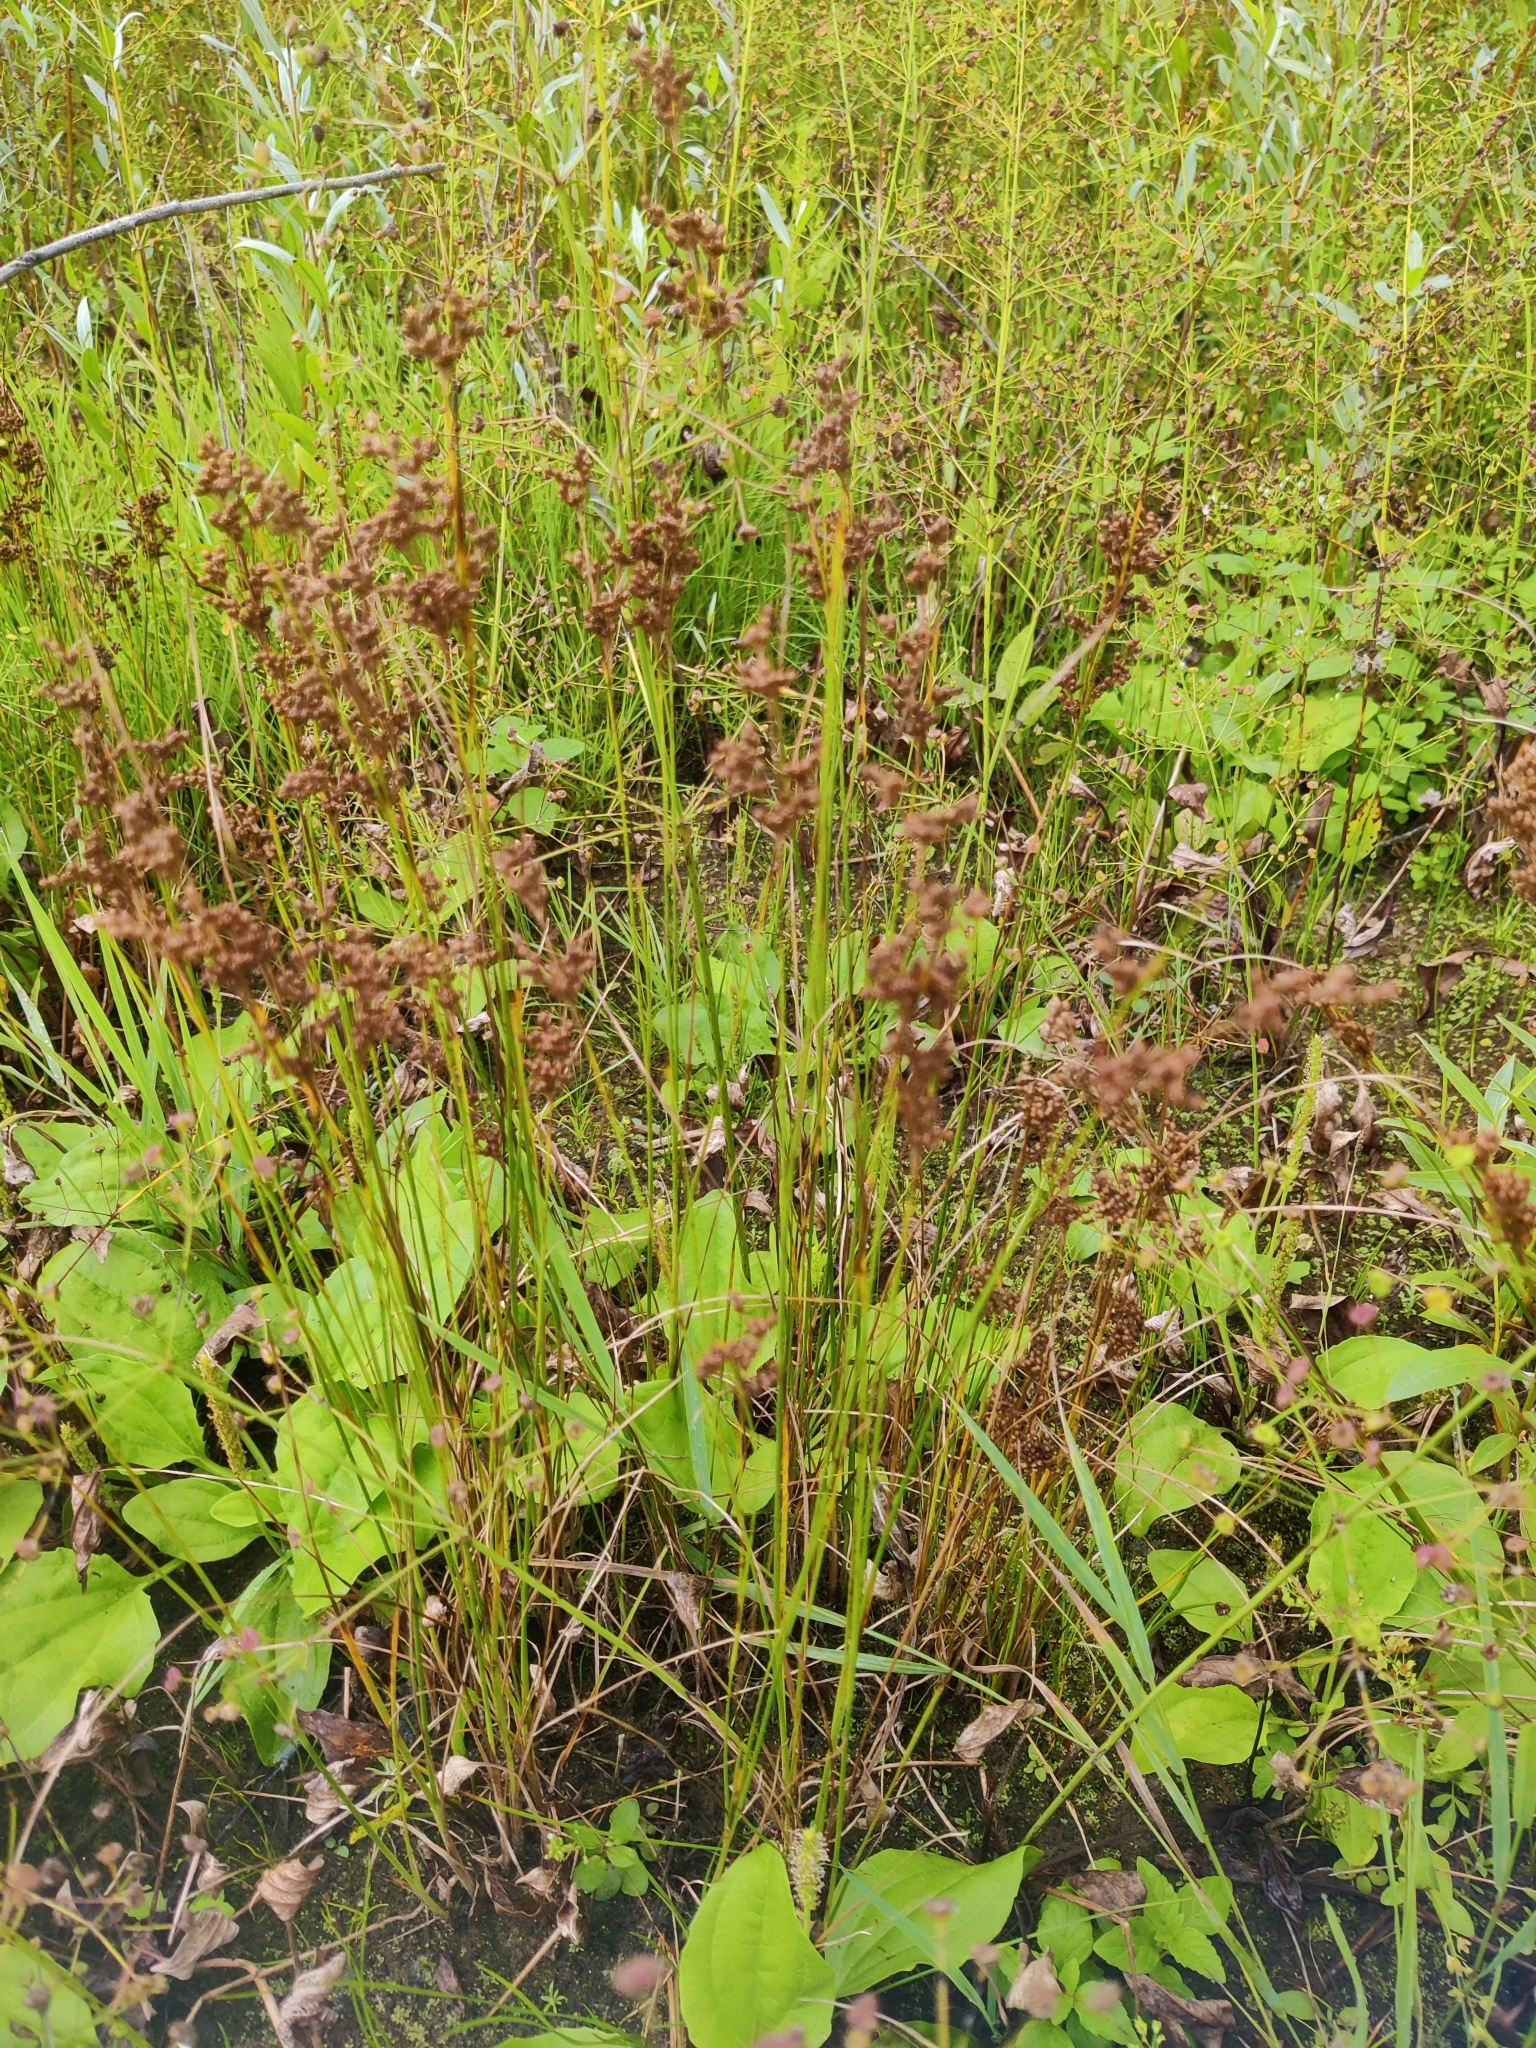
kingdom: Plantae
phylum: Tracheophyta
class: Liliopsida
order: Poales
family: Juncaceae
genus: Juncus
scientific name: Juncus compressus
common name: Round-fruited rush
